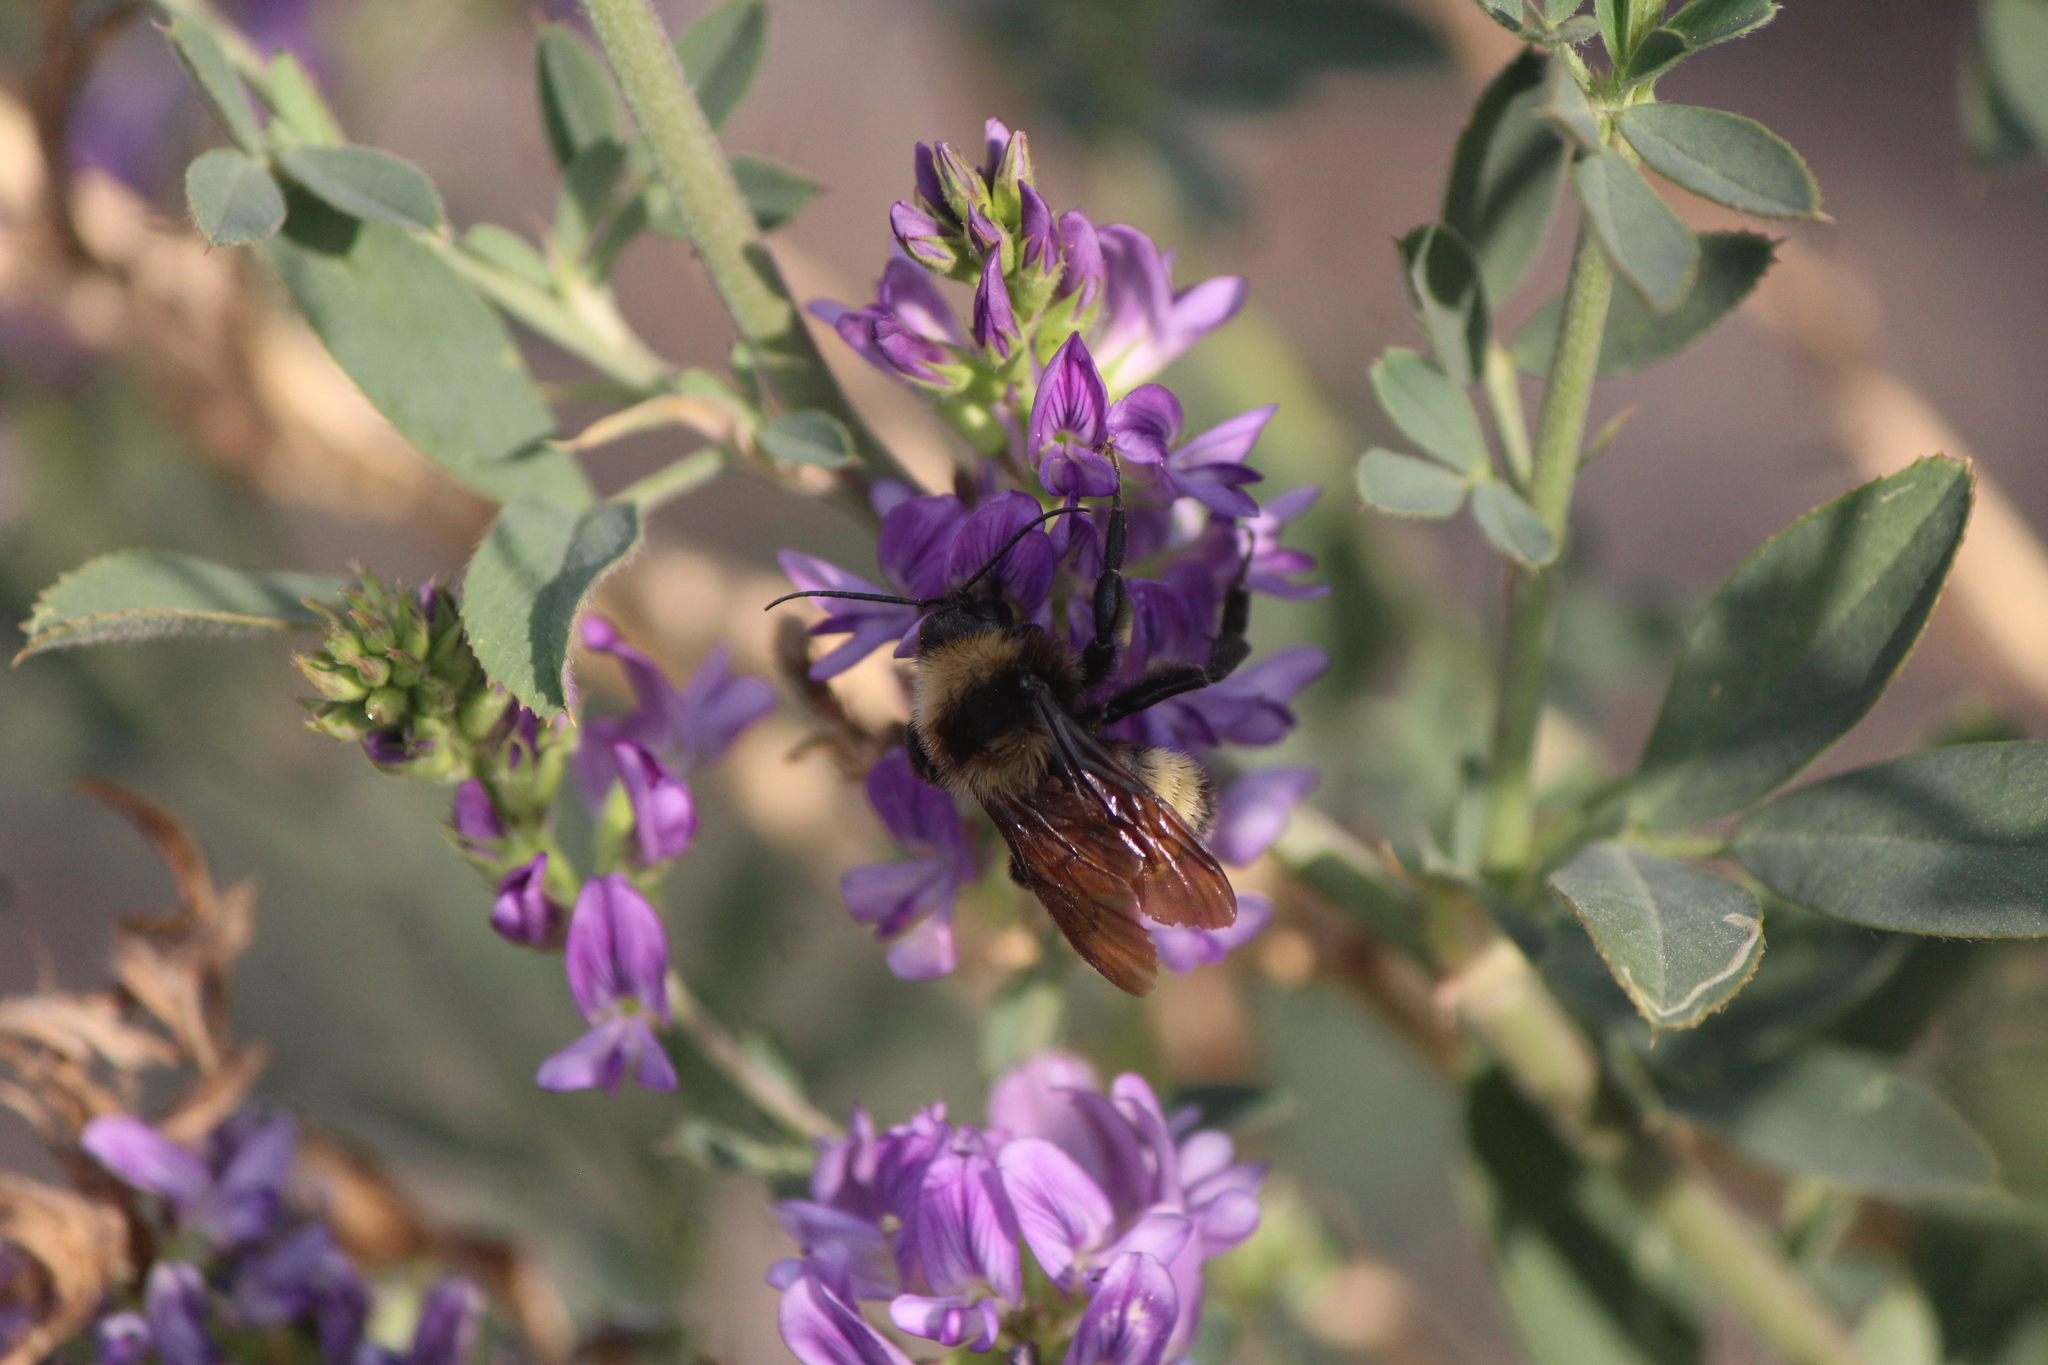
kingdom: Animalia
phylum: Arthropoda
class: Insecta
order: Hymenoptera
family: Apidae
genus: Bombus
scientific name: Bombus sonorus
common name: Sonoran bumble bee
